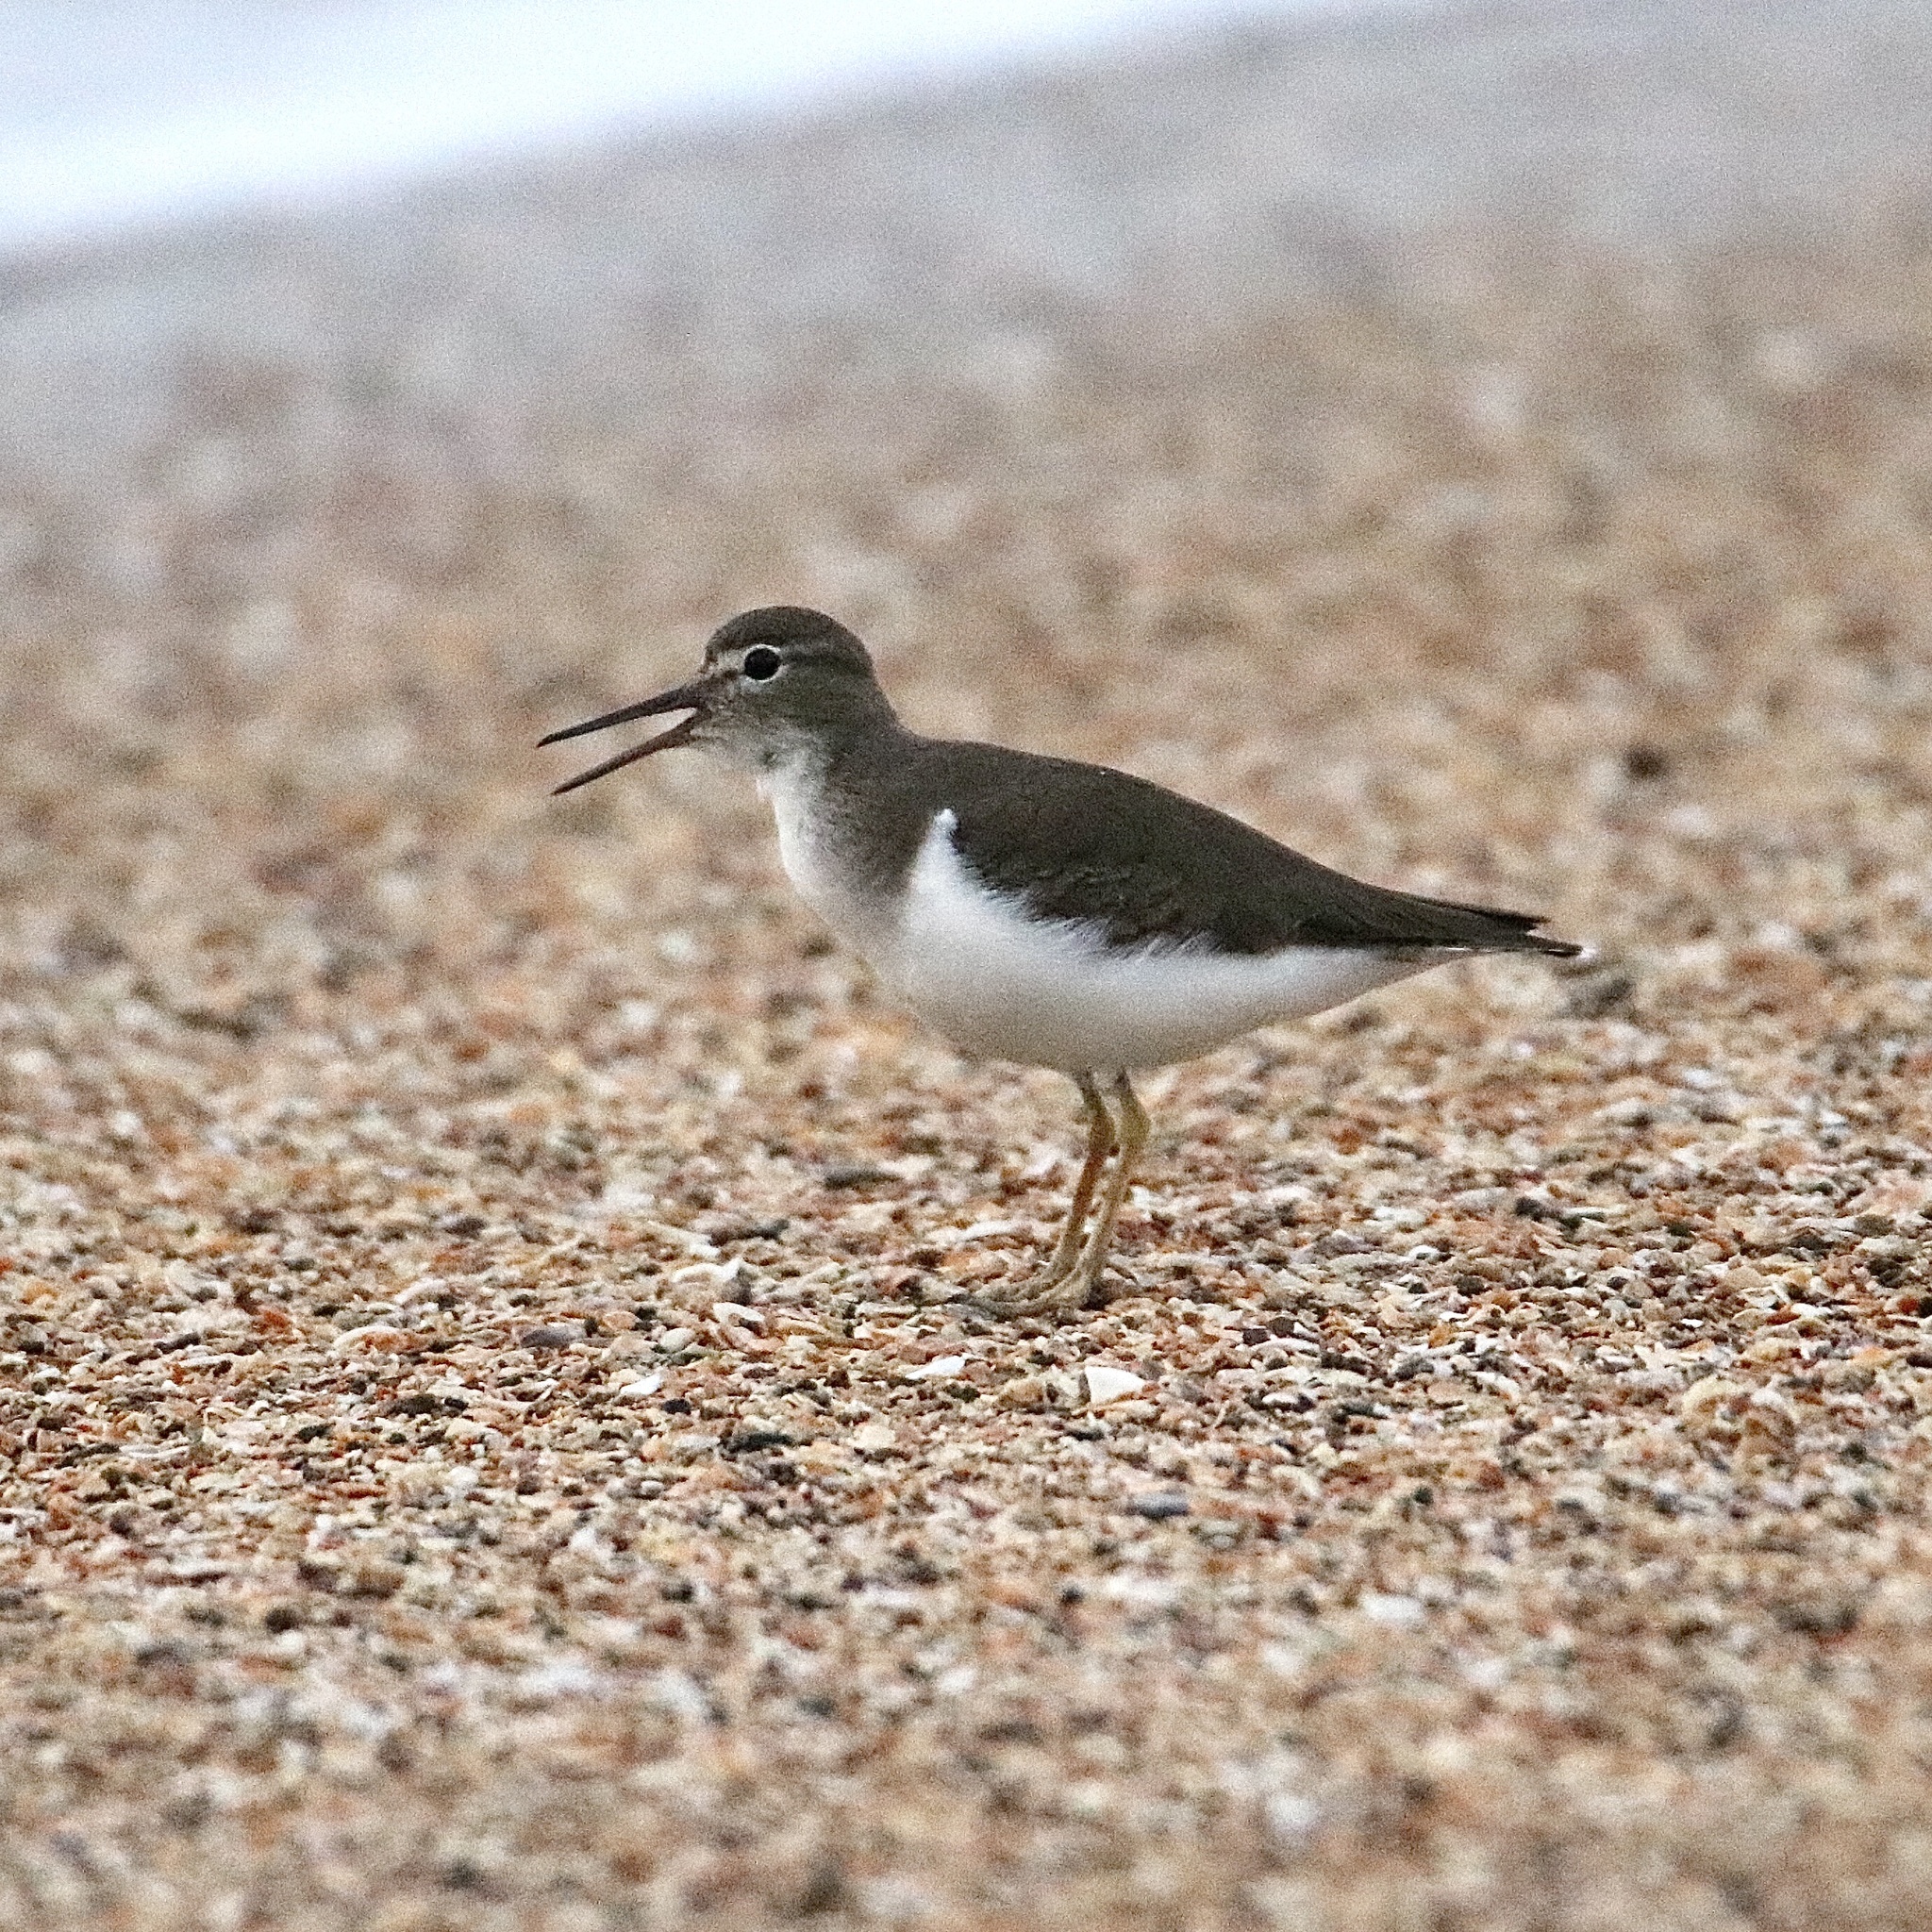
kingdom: Animalia
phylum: Chordata
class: Aves
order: Charadriiformes
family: Scolopacidae
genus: Actitis
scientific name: Actitis macularius
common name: Spotted sandpiper
